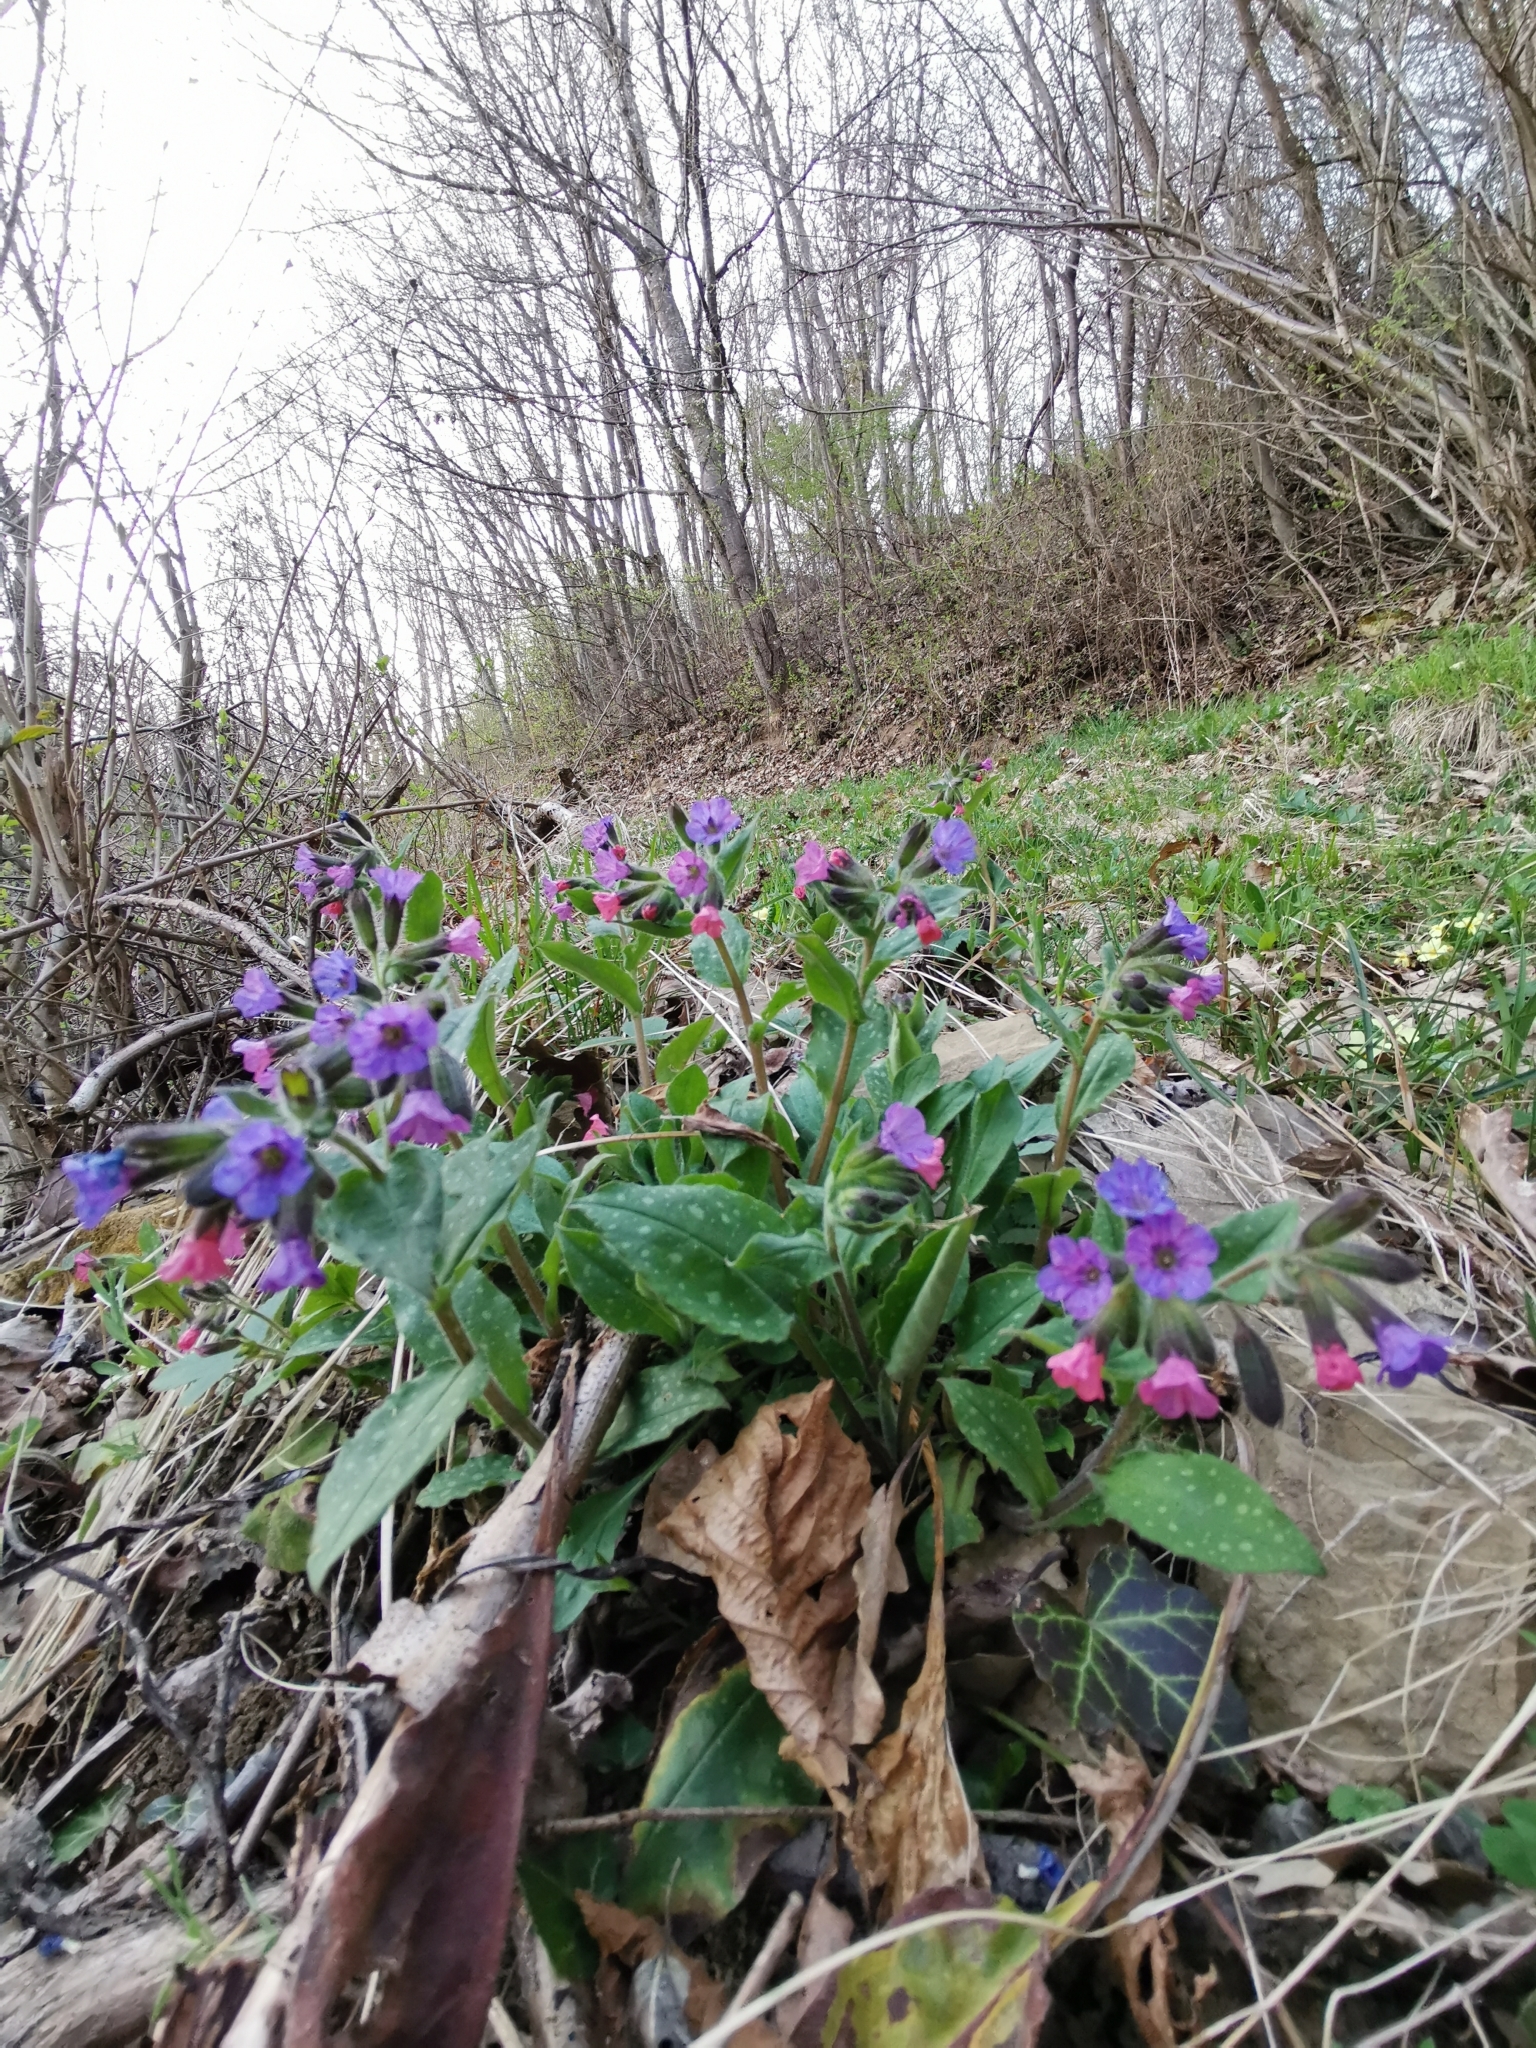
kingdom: Plantae
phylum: Tracheophyta
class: Magnoliopsida
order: Boraginales
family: Boraginaceae
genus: Pulmonaria
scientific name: Pulmonaria officinalis
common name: Lungwort
